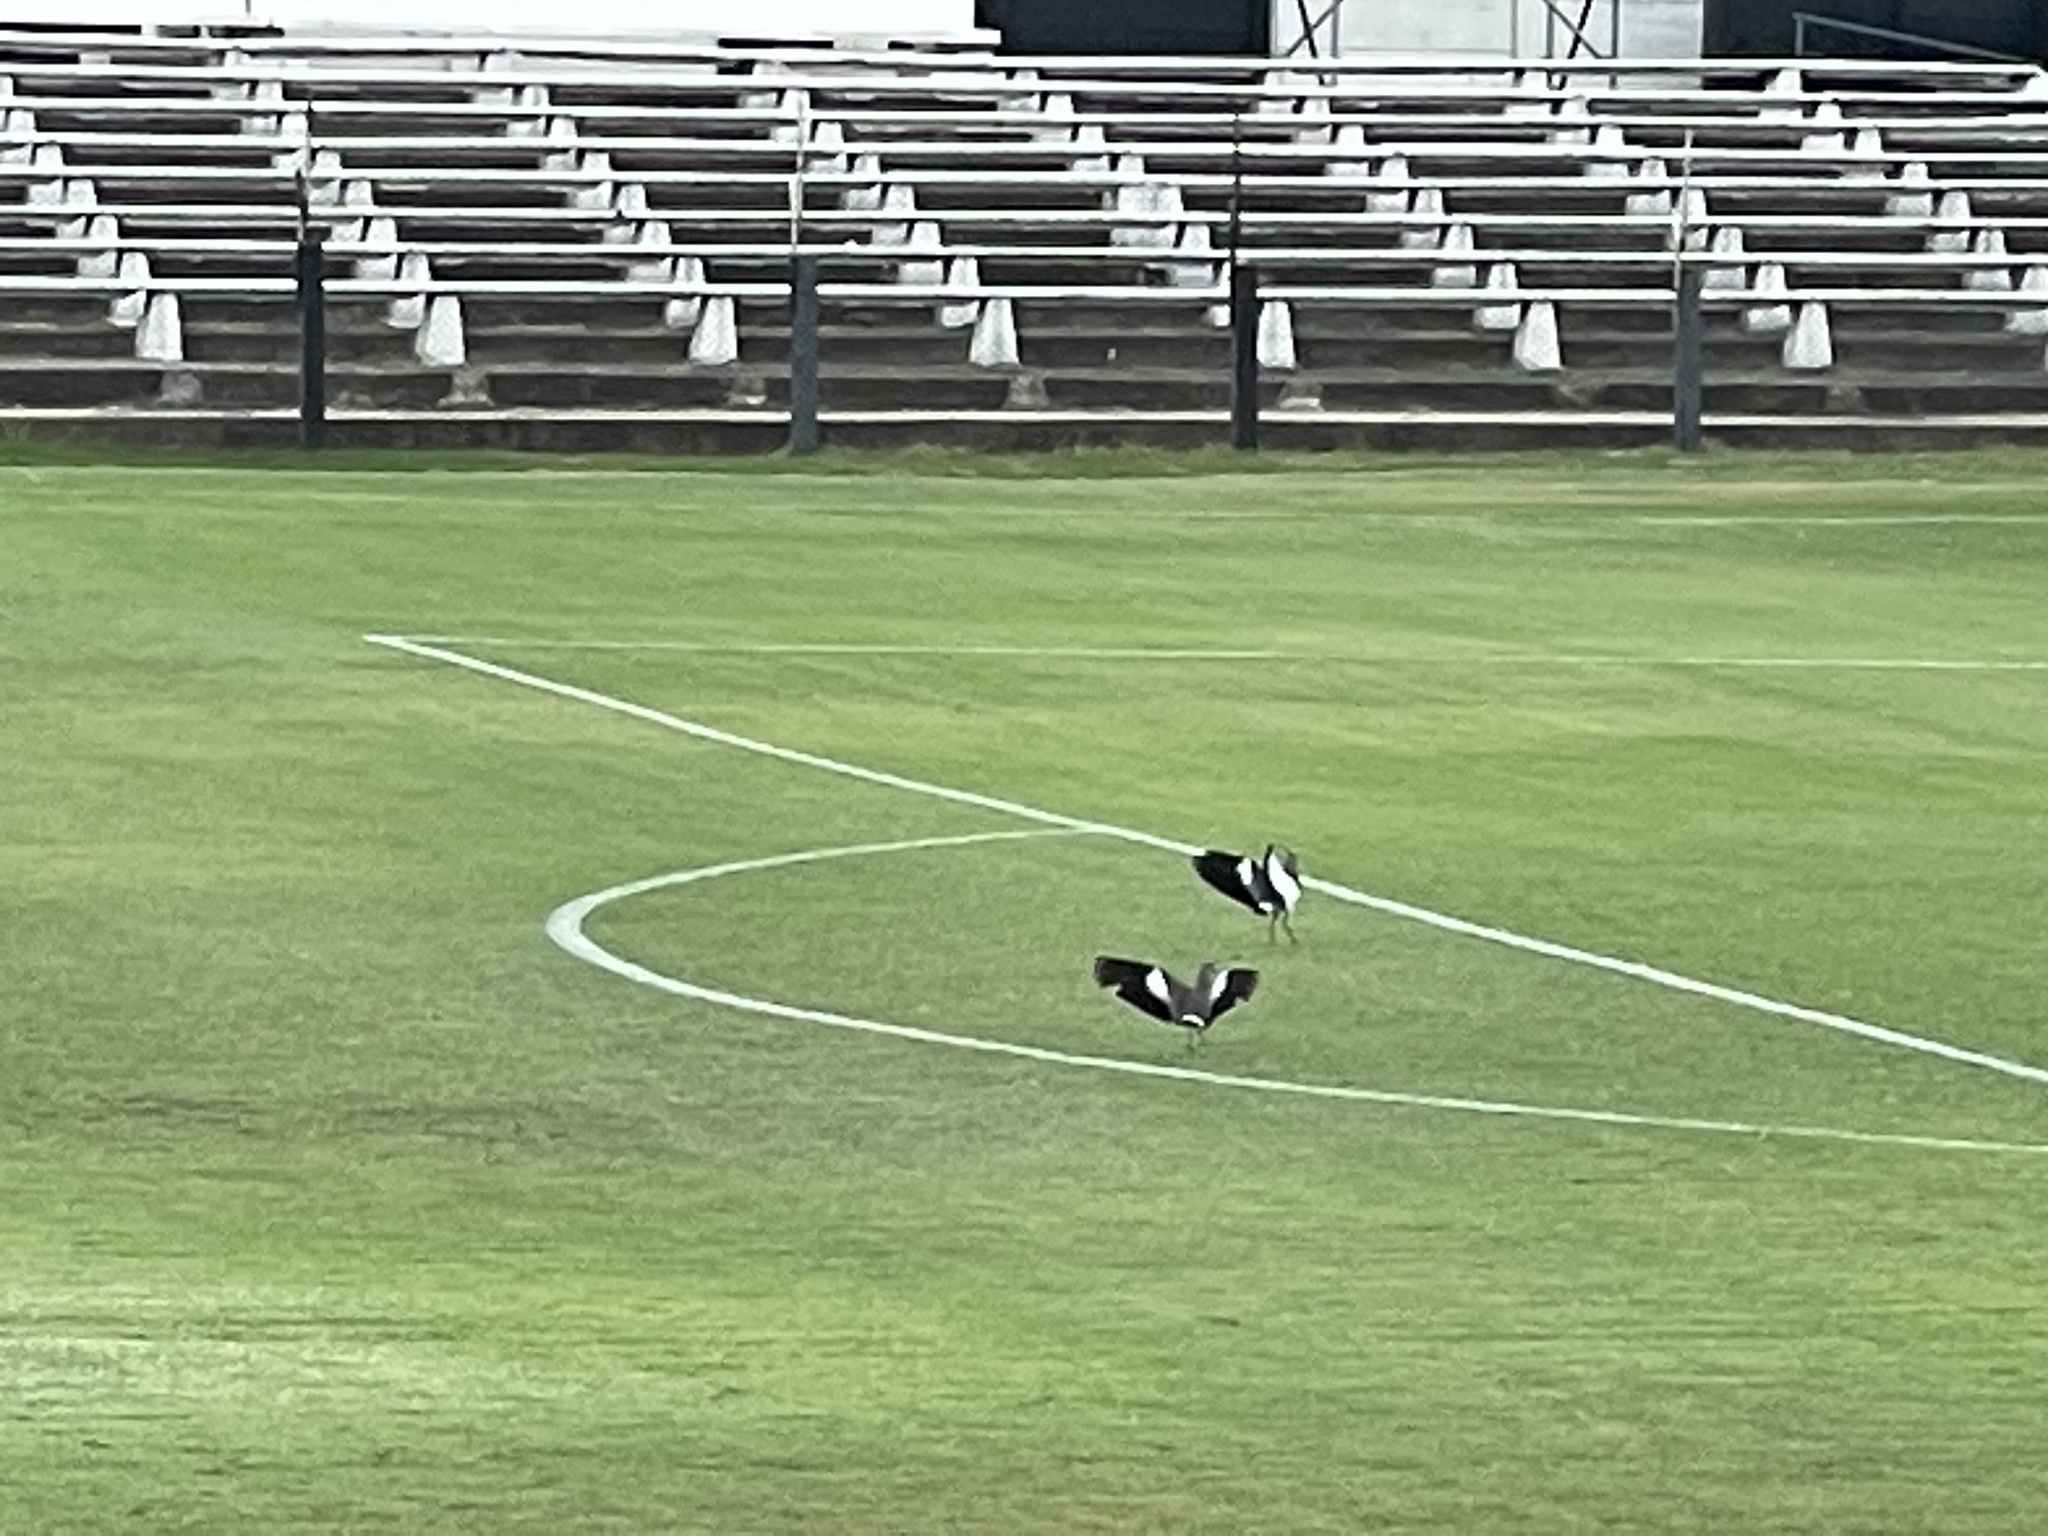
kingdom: Animalia
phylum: Chordata
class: Aves
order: Charadriiformes
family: Charadriidae
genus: Vanellus
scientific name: Vanellus chilensis
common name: Southern lapwing
